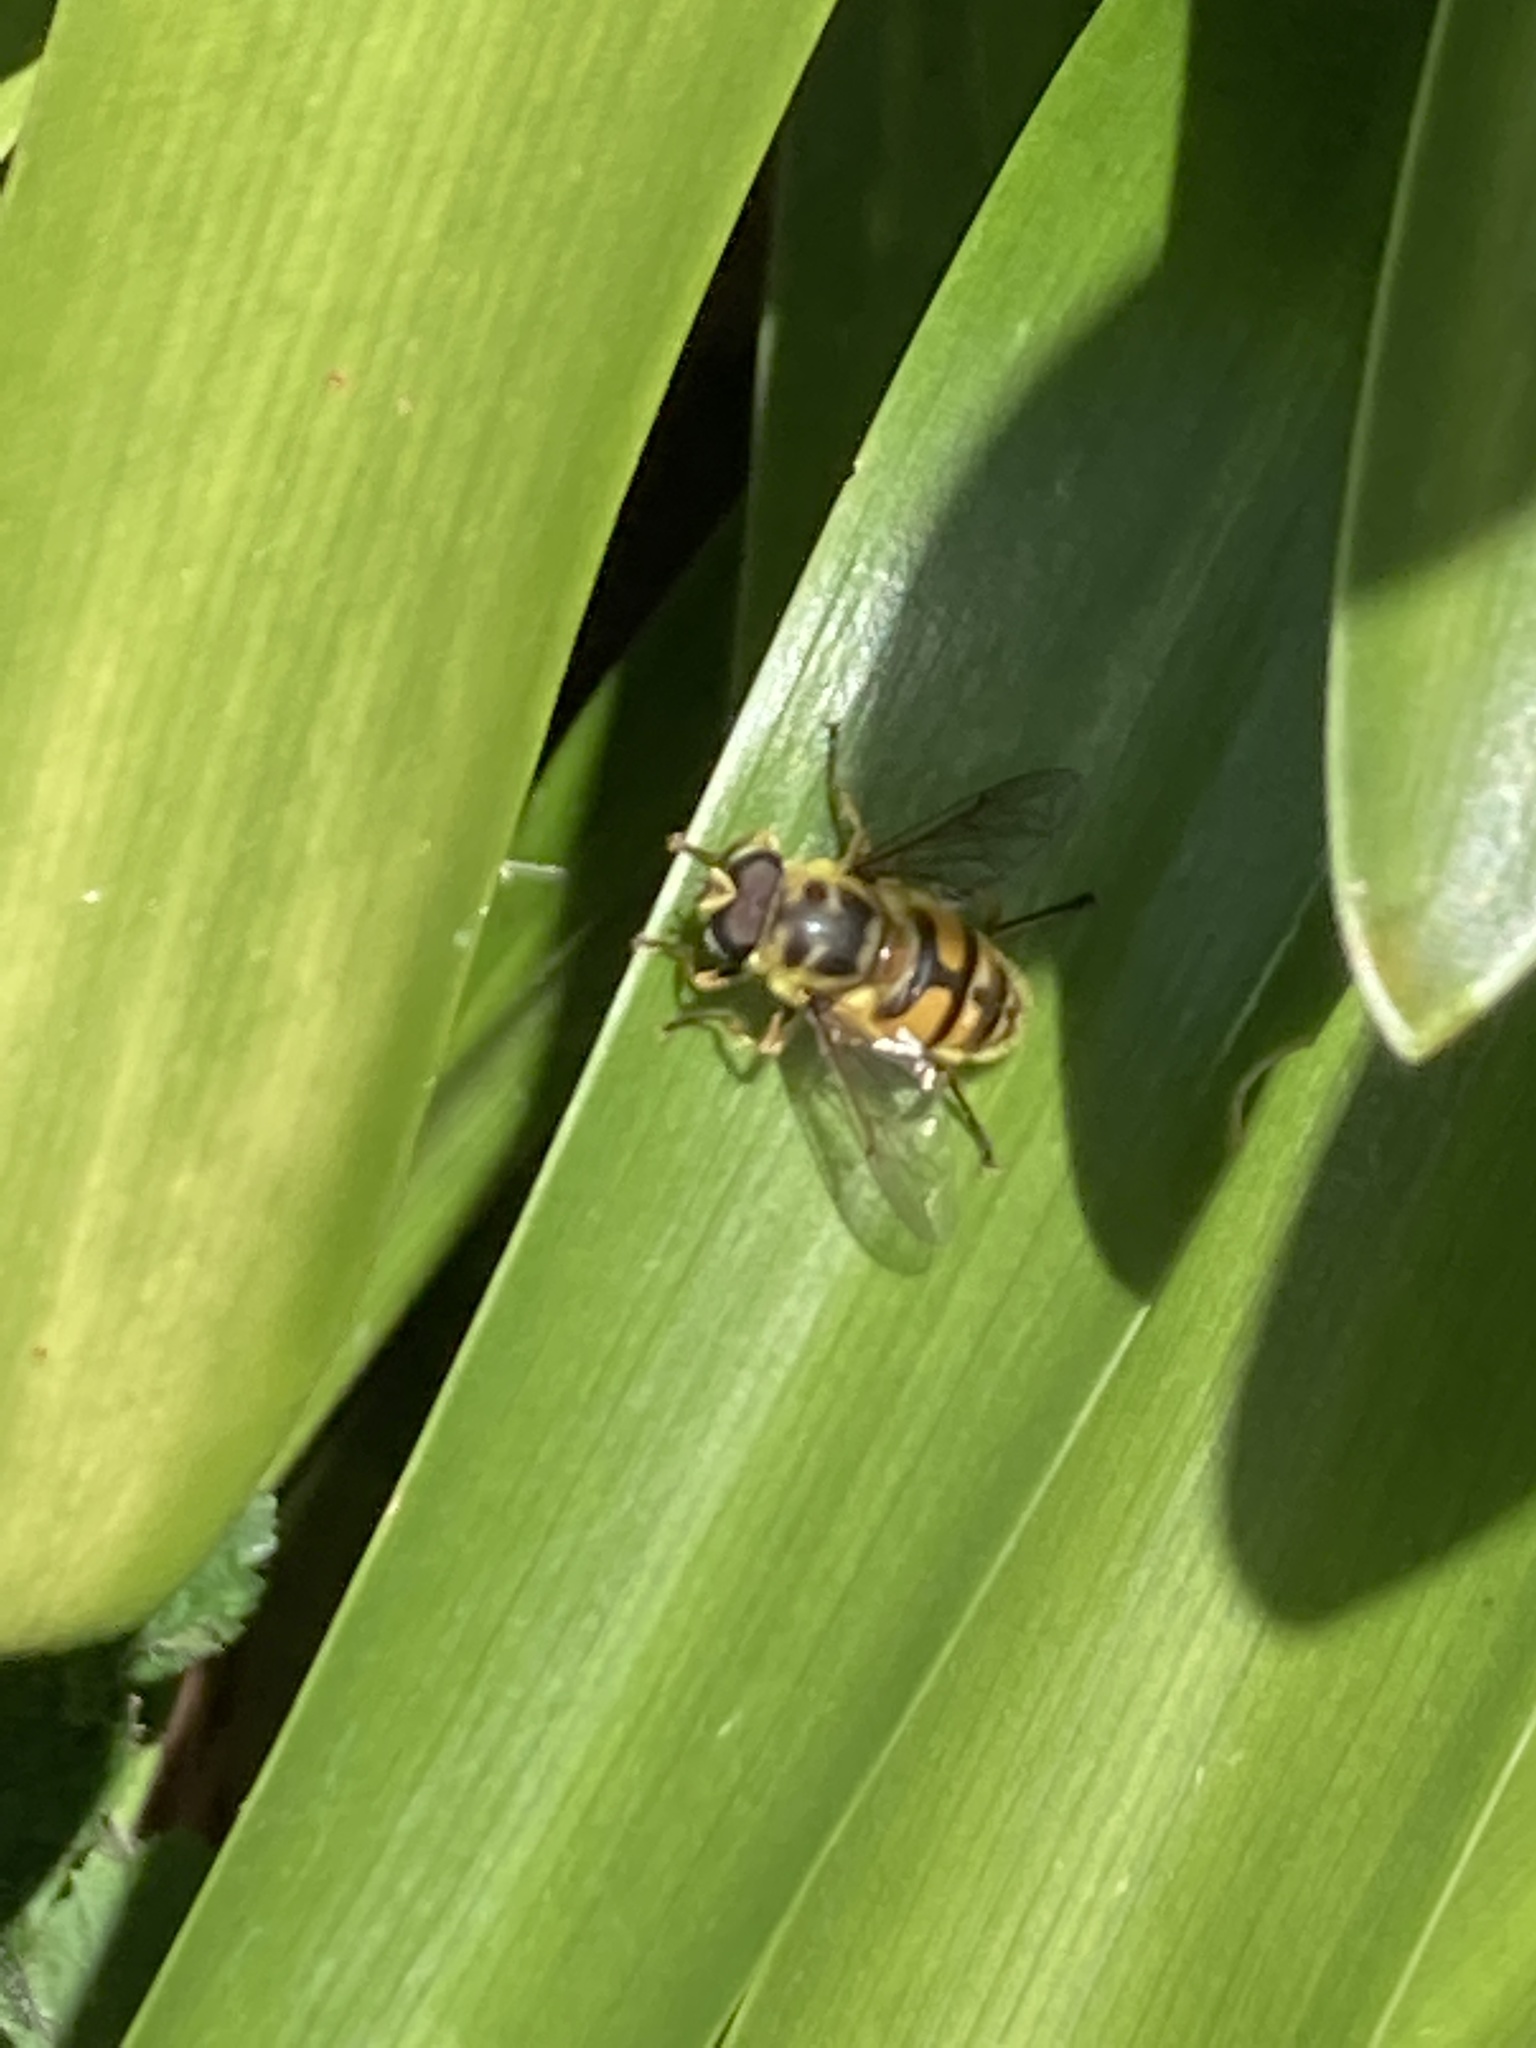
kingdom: Animalia
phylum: Arthropoda
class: Insecta
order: Diptera
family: Syrphidae
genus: Myathropa
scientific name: Myathropa florea
